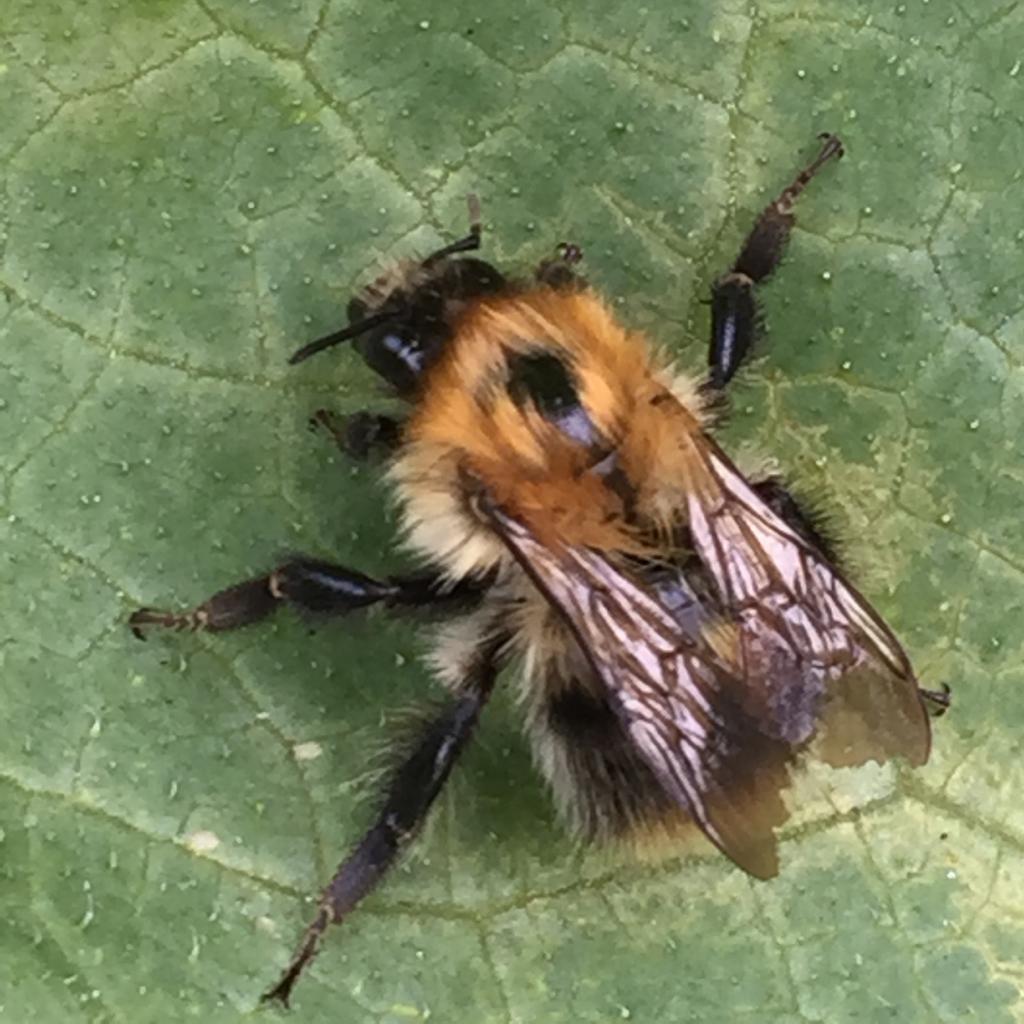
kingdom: Animalia
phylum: Arthropoda
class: Insecta
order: Hymenoptera
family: Apidae
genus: Bombus
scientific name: Bombus pascuorum
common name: Common carder bee
